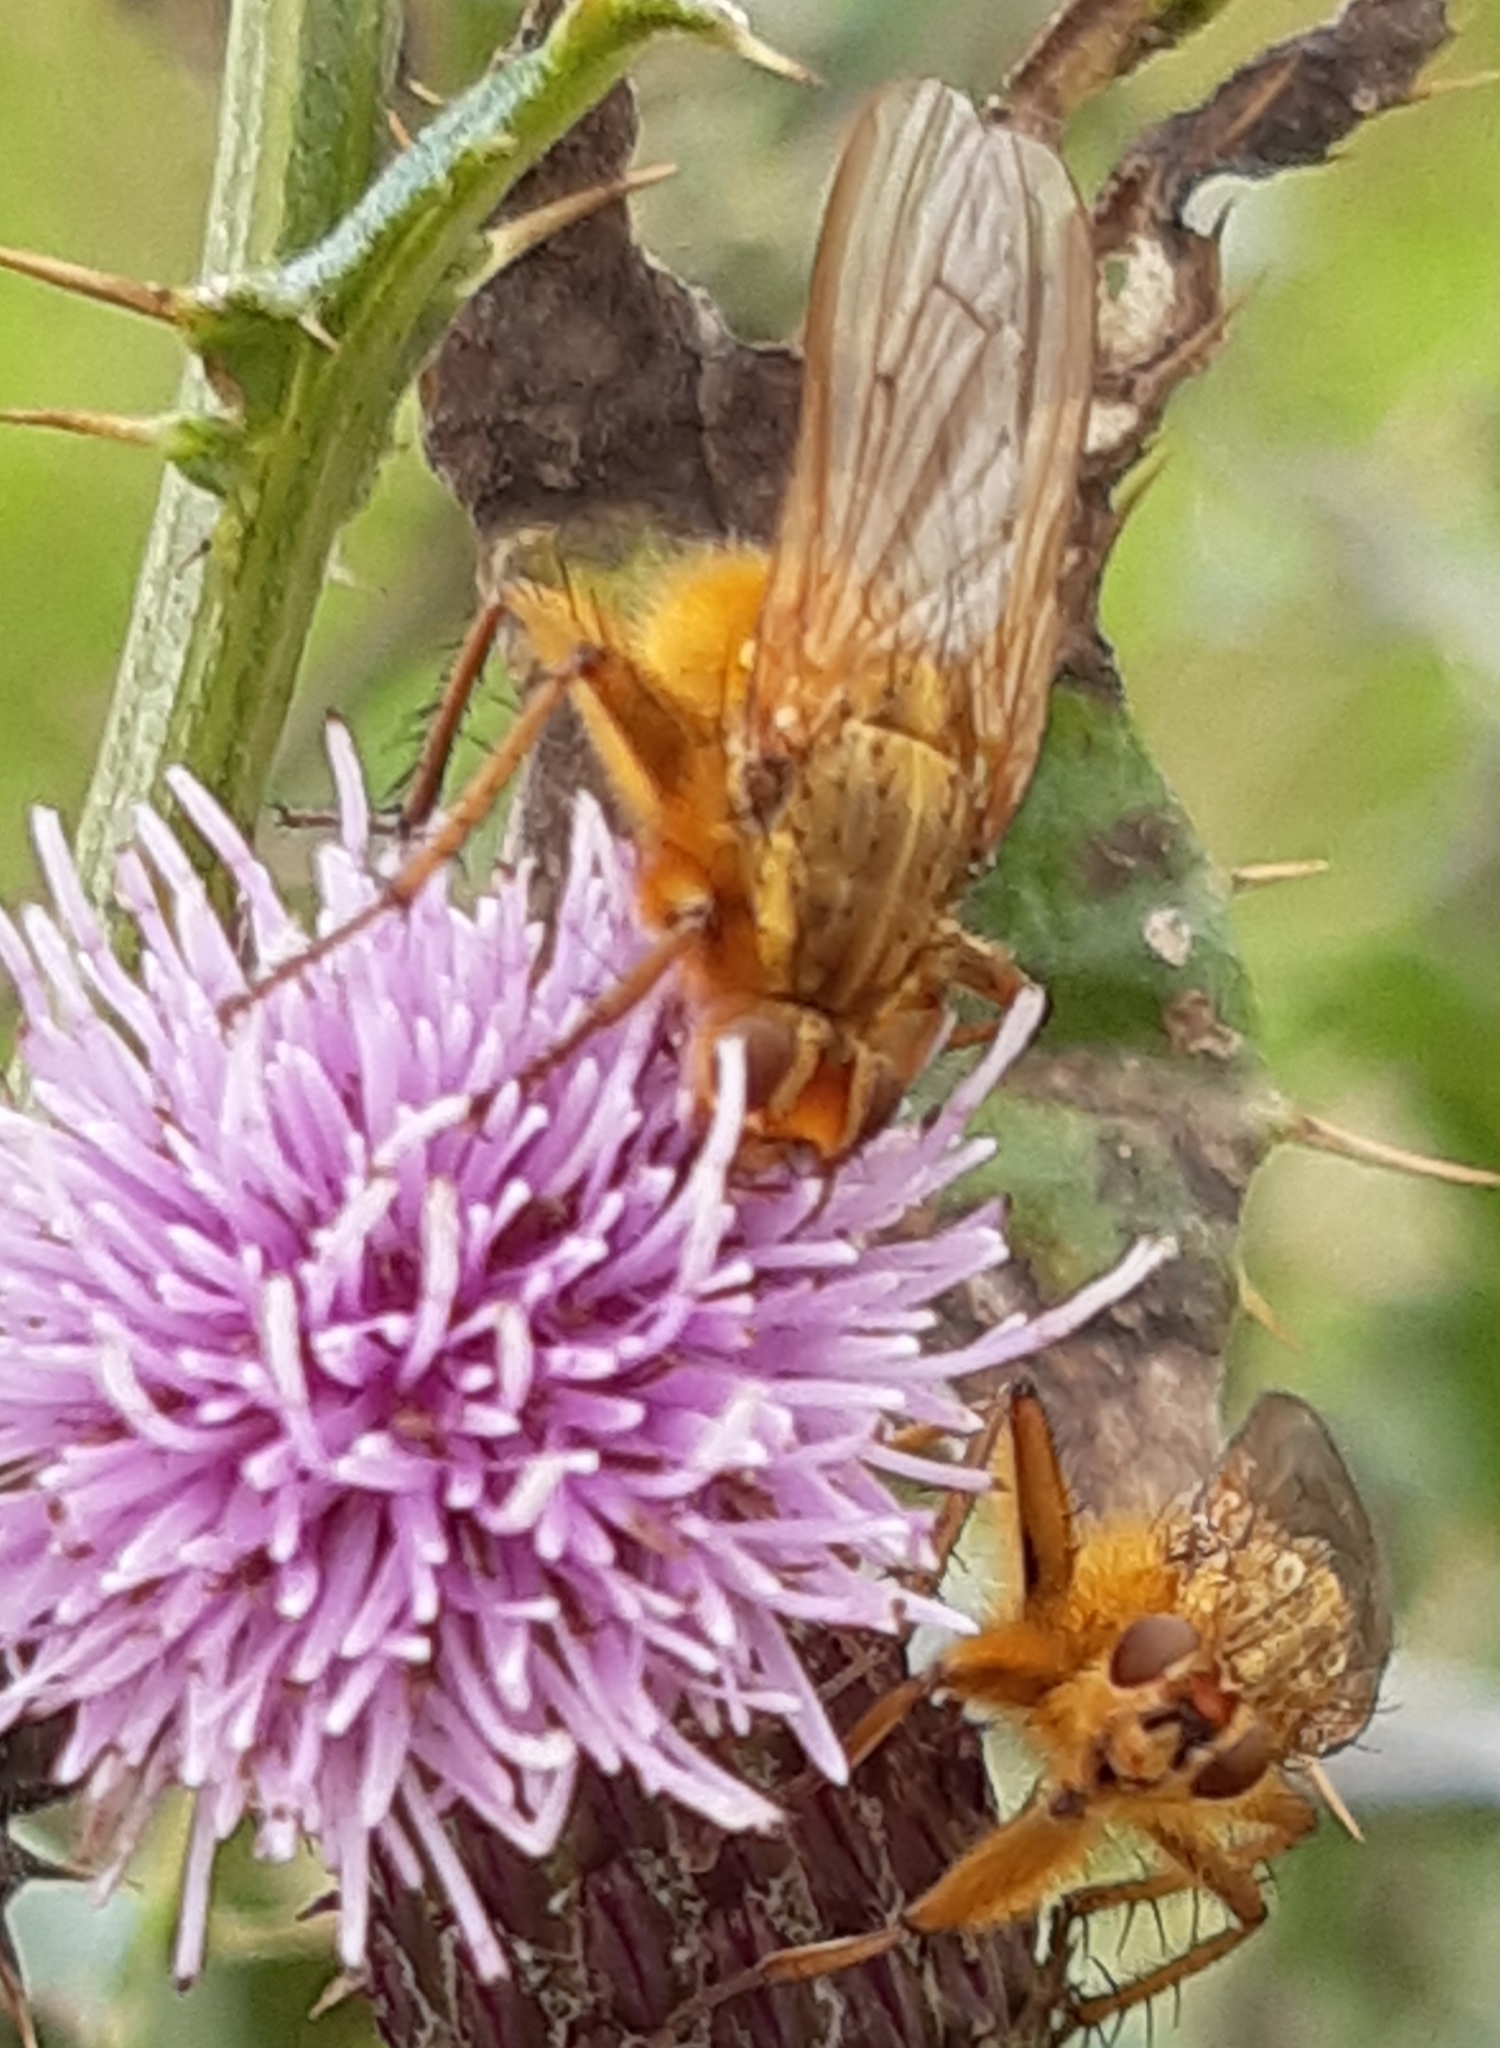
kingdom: Animalia
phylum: Arthropoda
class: Insecta
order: Diptera
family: Scathophagidae
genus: Scathophaga
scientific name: Scathophaga stercoraria
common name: Yellow dung fly
